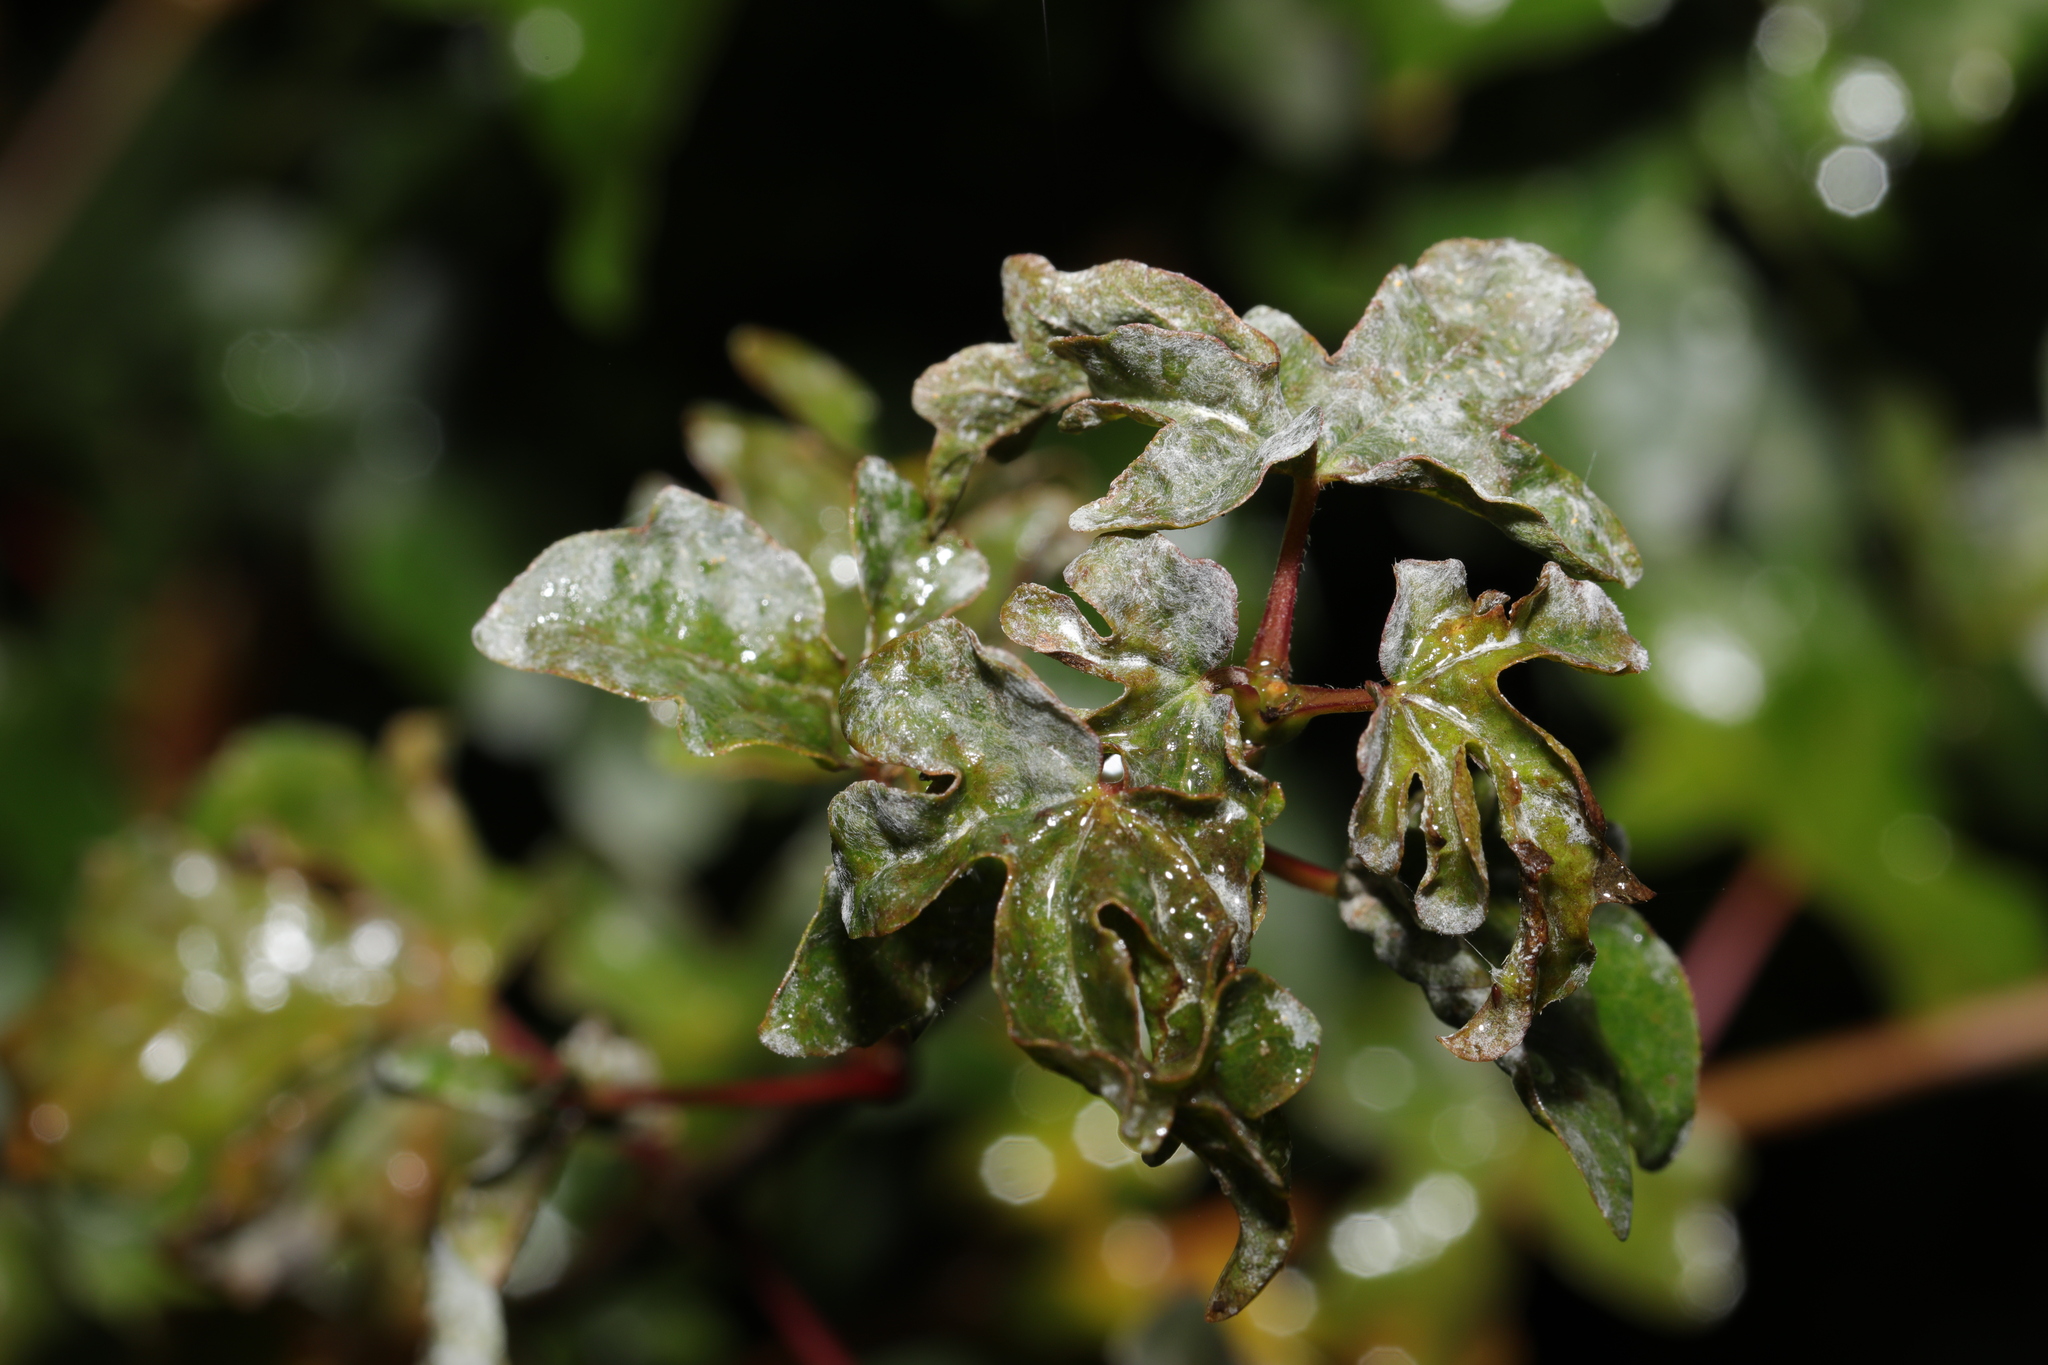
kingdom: Fungi
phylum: Ascomycota
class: Leotiomycetes
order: Helotiales
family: Erysiphaceae
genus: Sawadaea
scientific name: Sawadaea bicornis
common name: Maple mildew
